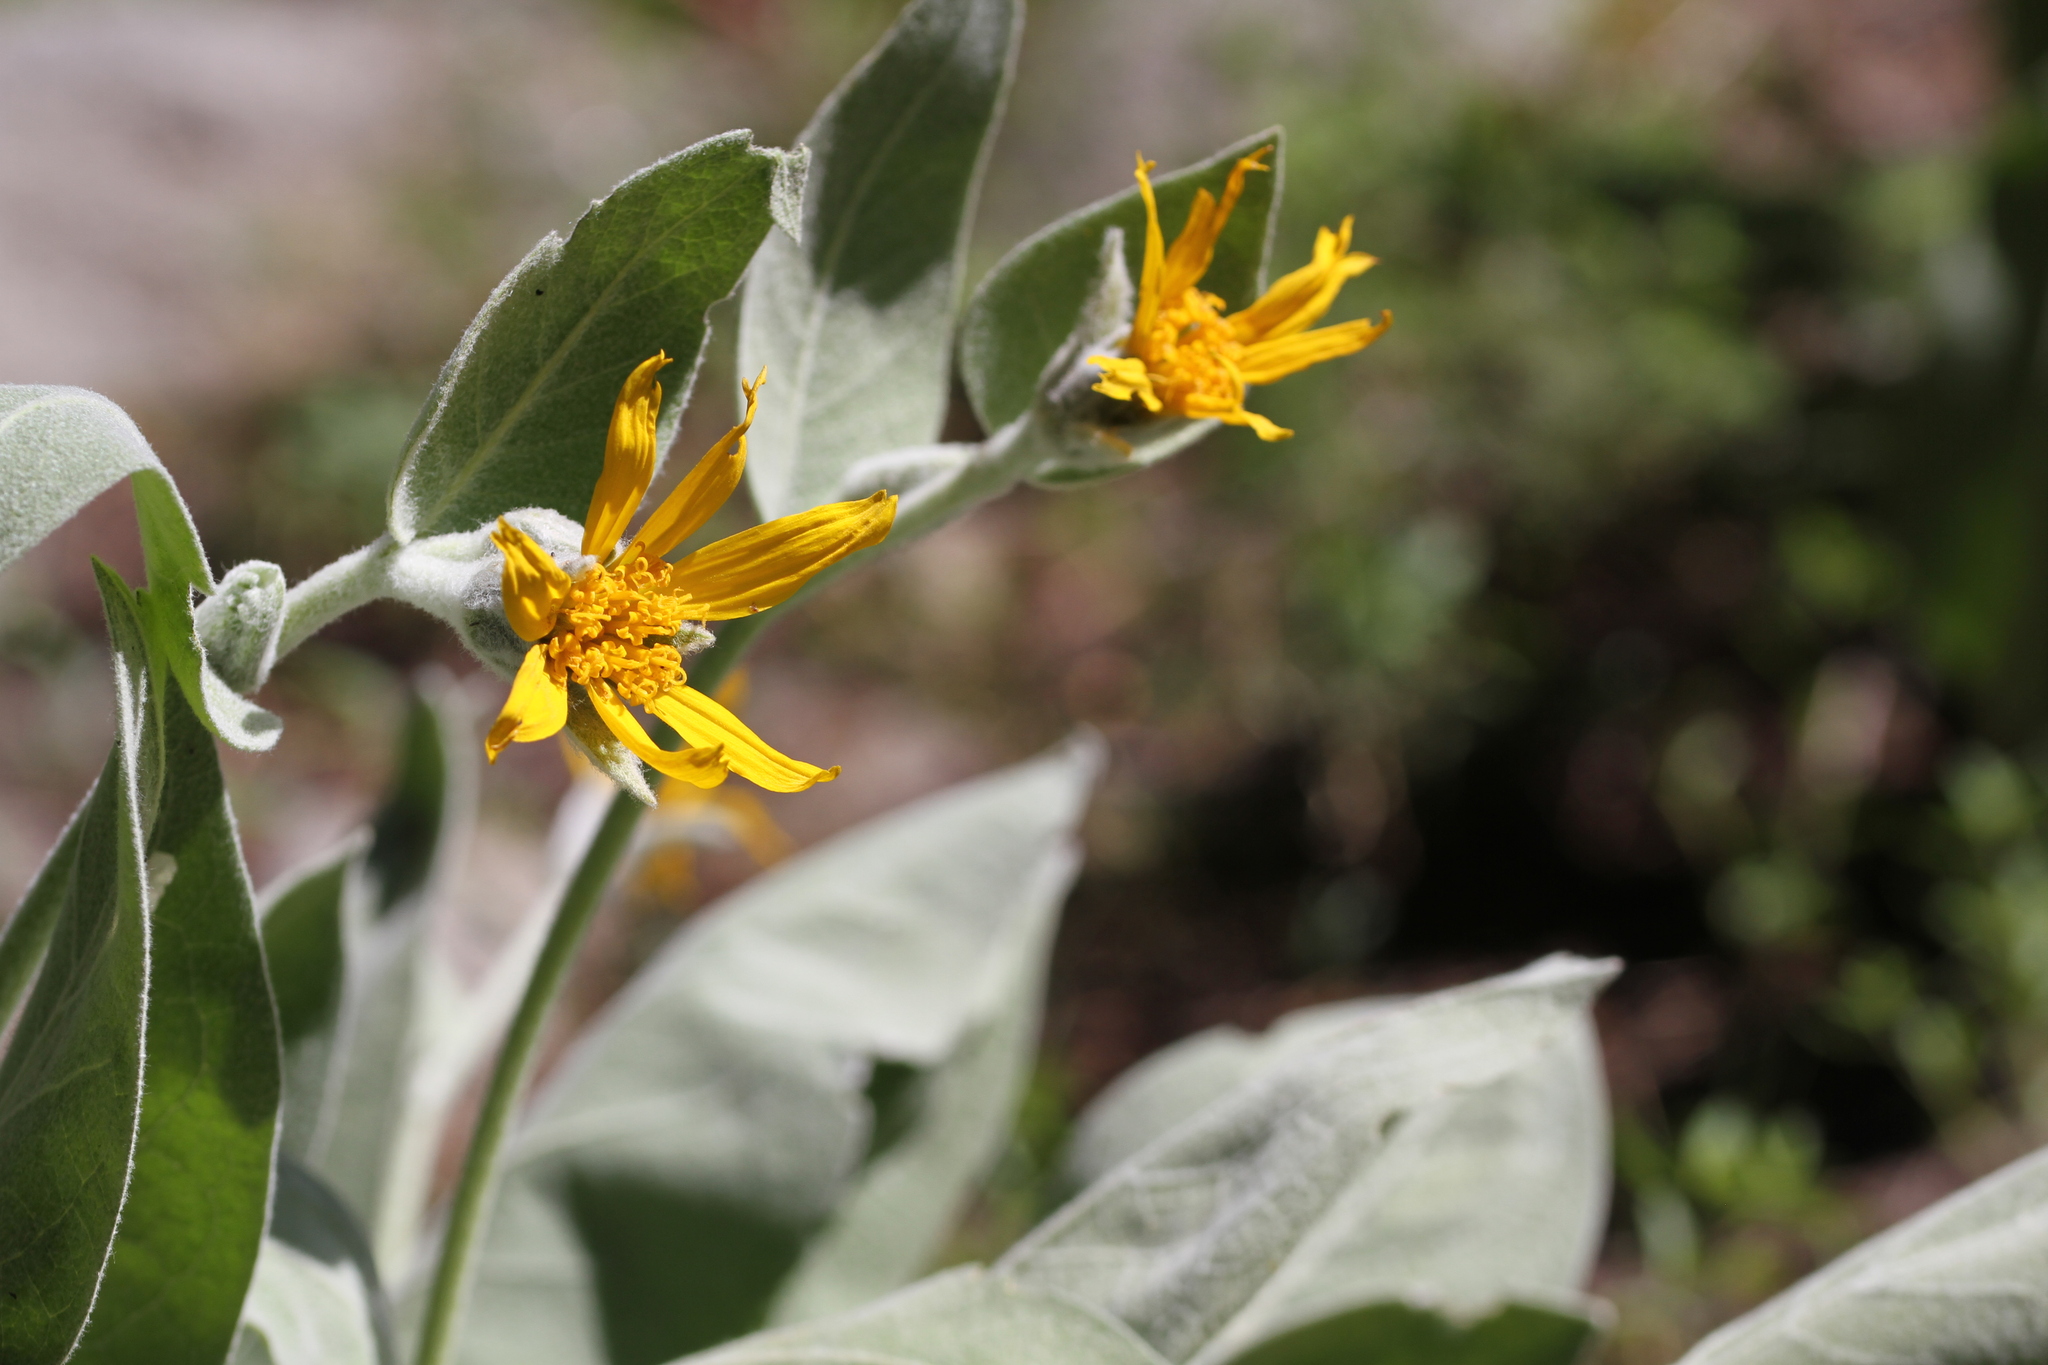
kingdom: Plantae
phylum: Tracheophyta
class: Magnoliopsida
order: Asterales
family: Asteraceae
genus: Wyethia
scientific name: Wyethia mollis
